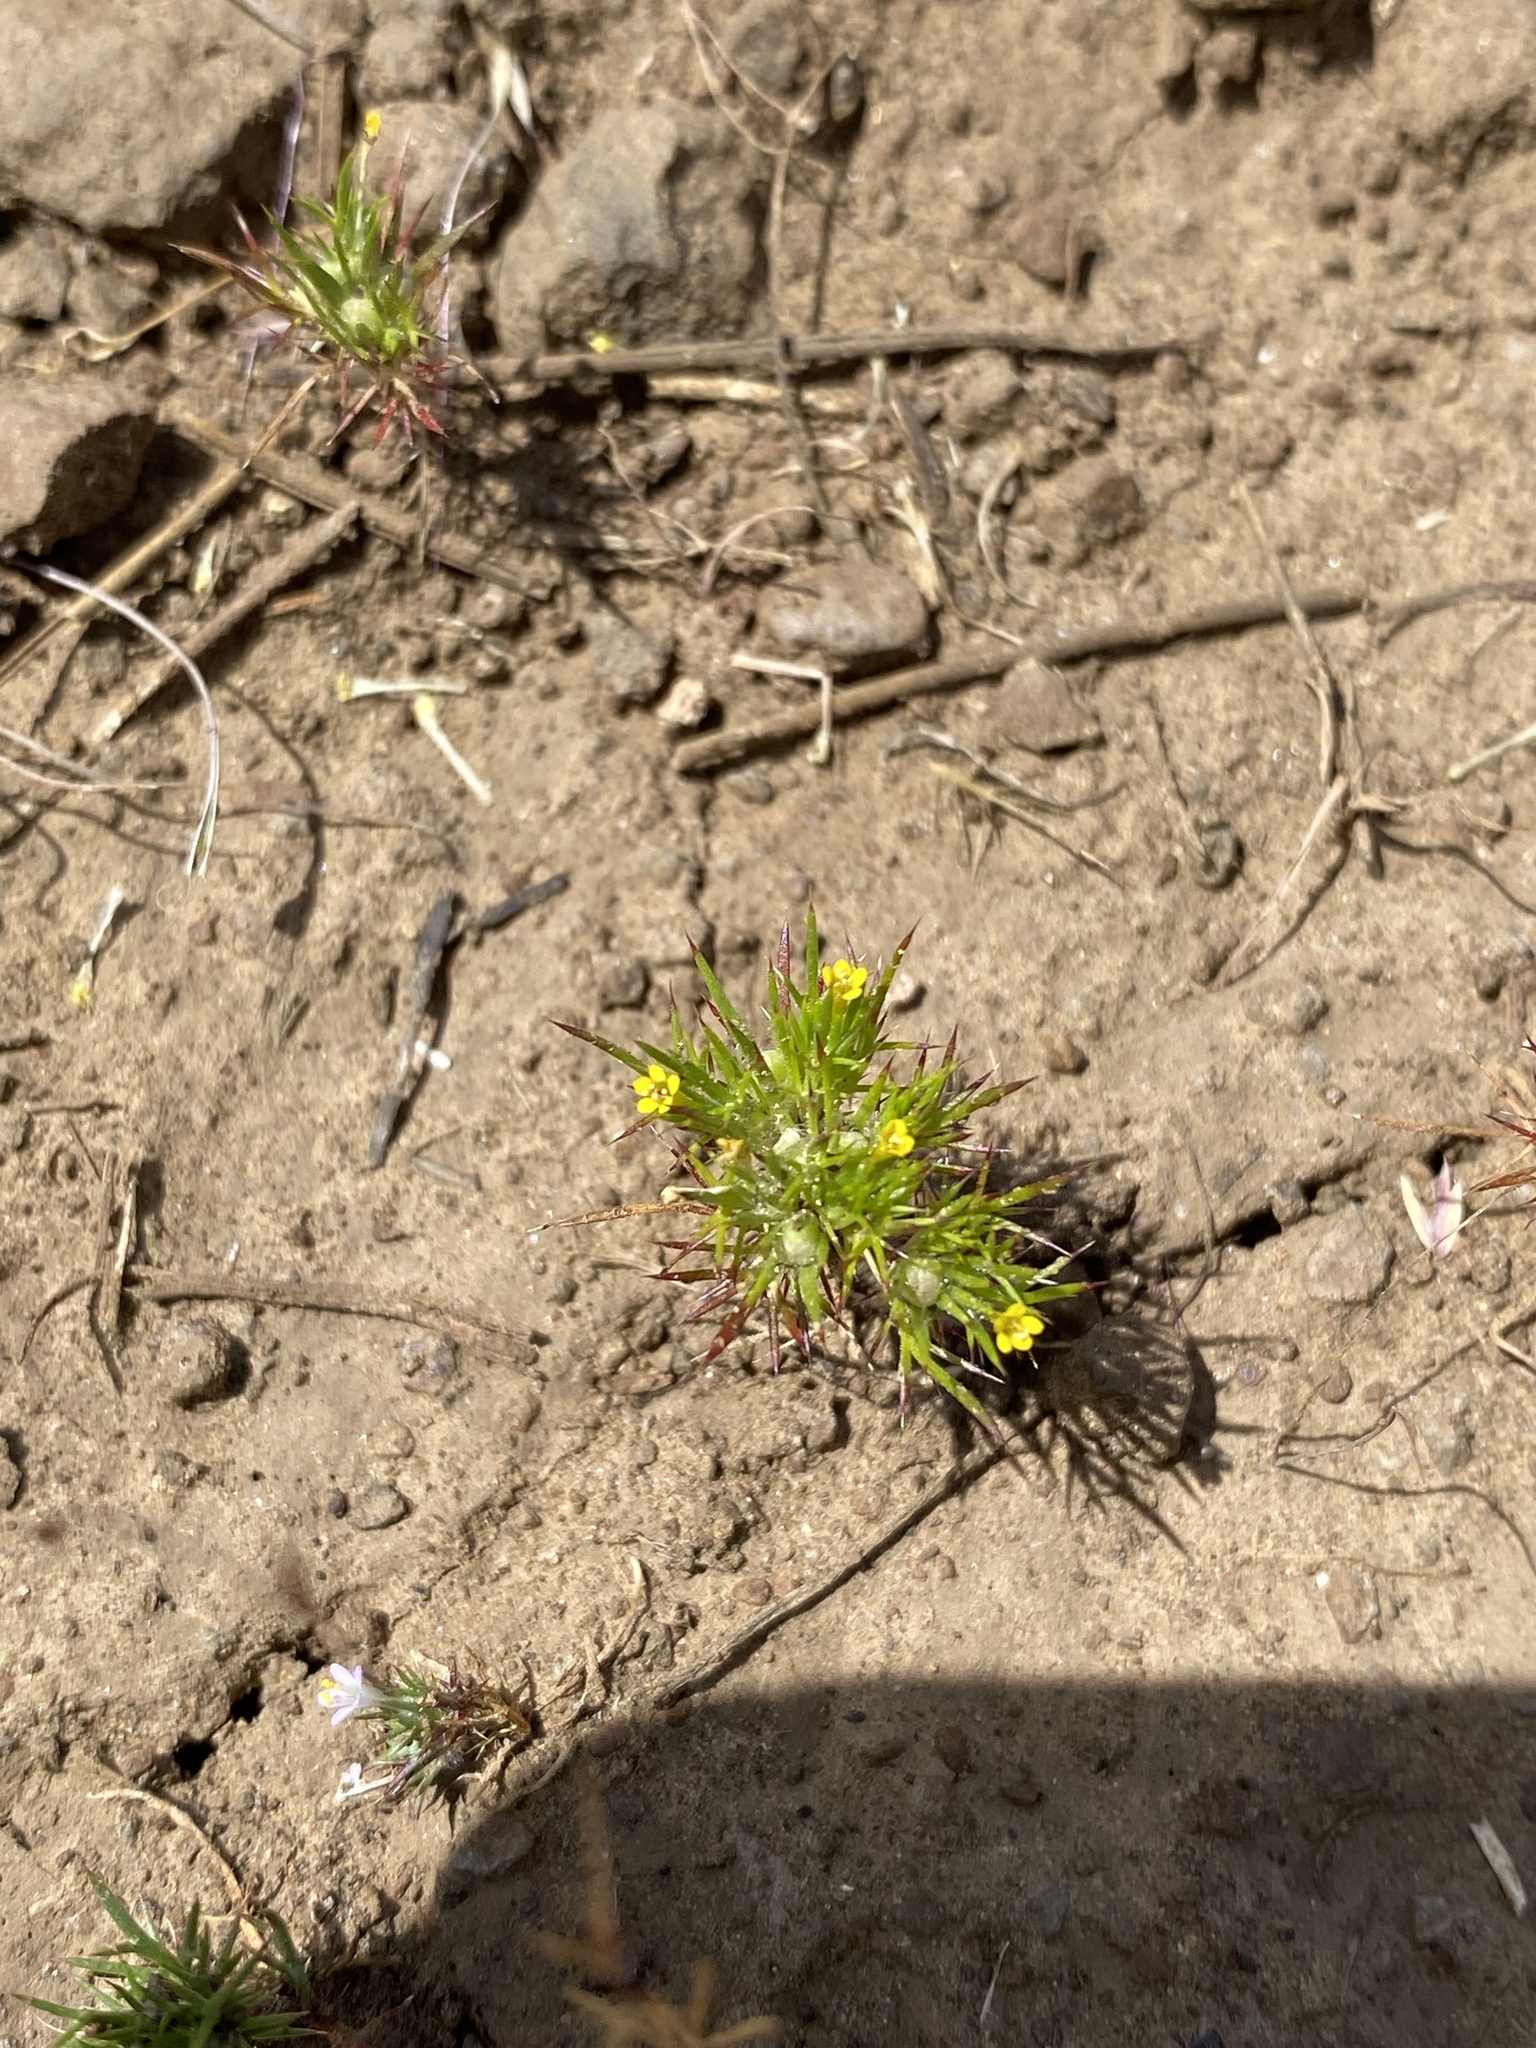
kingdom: Plantae
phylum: Tracheophyta
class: Magnoliopsida
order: Ericales
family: Polemoniaceae
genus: Navarretia
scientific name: Navarretia breweri
